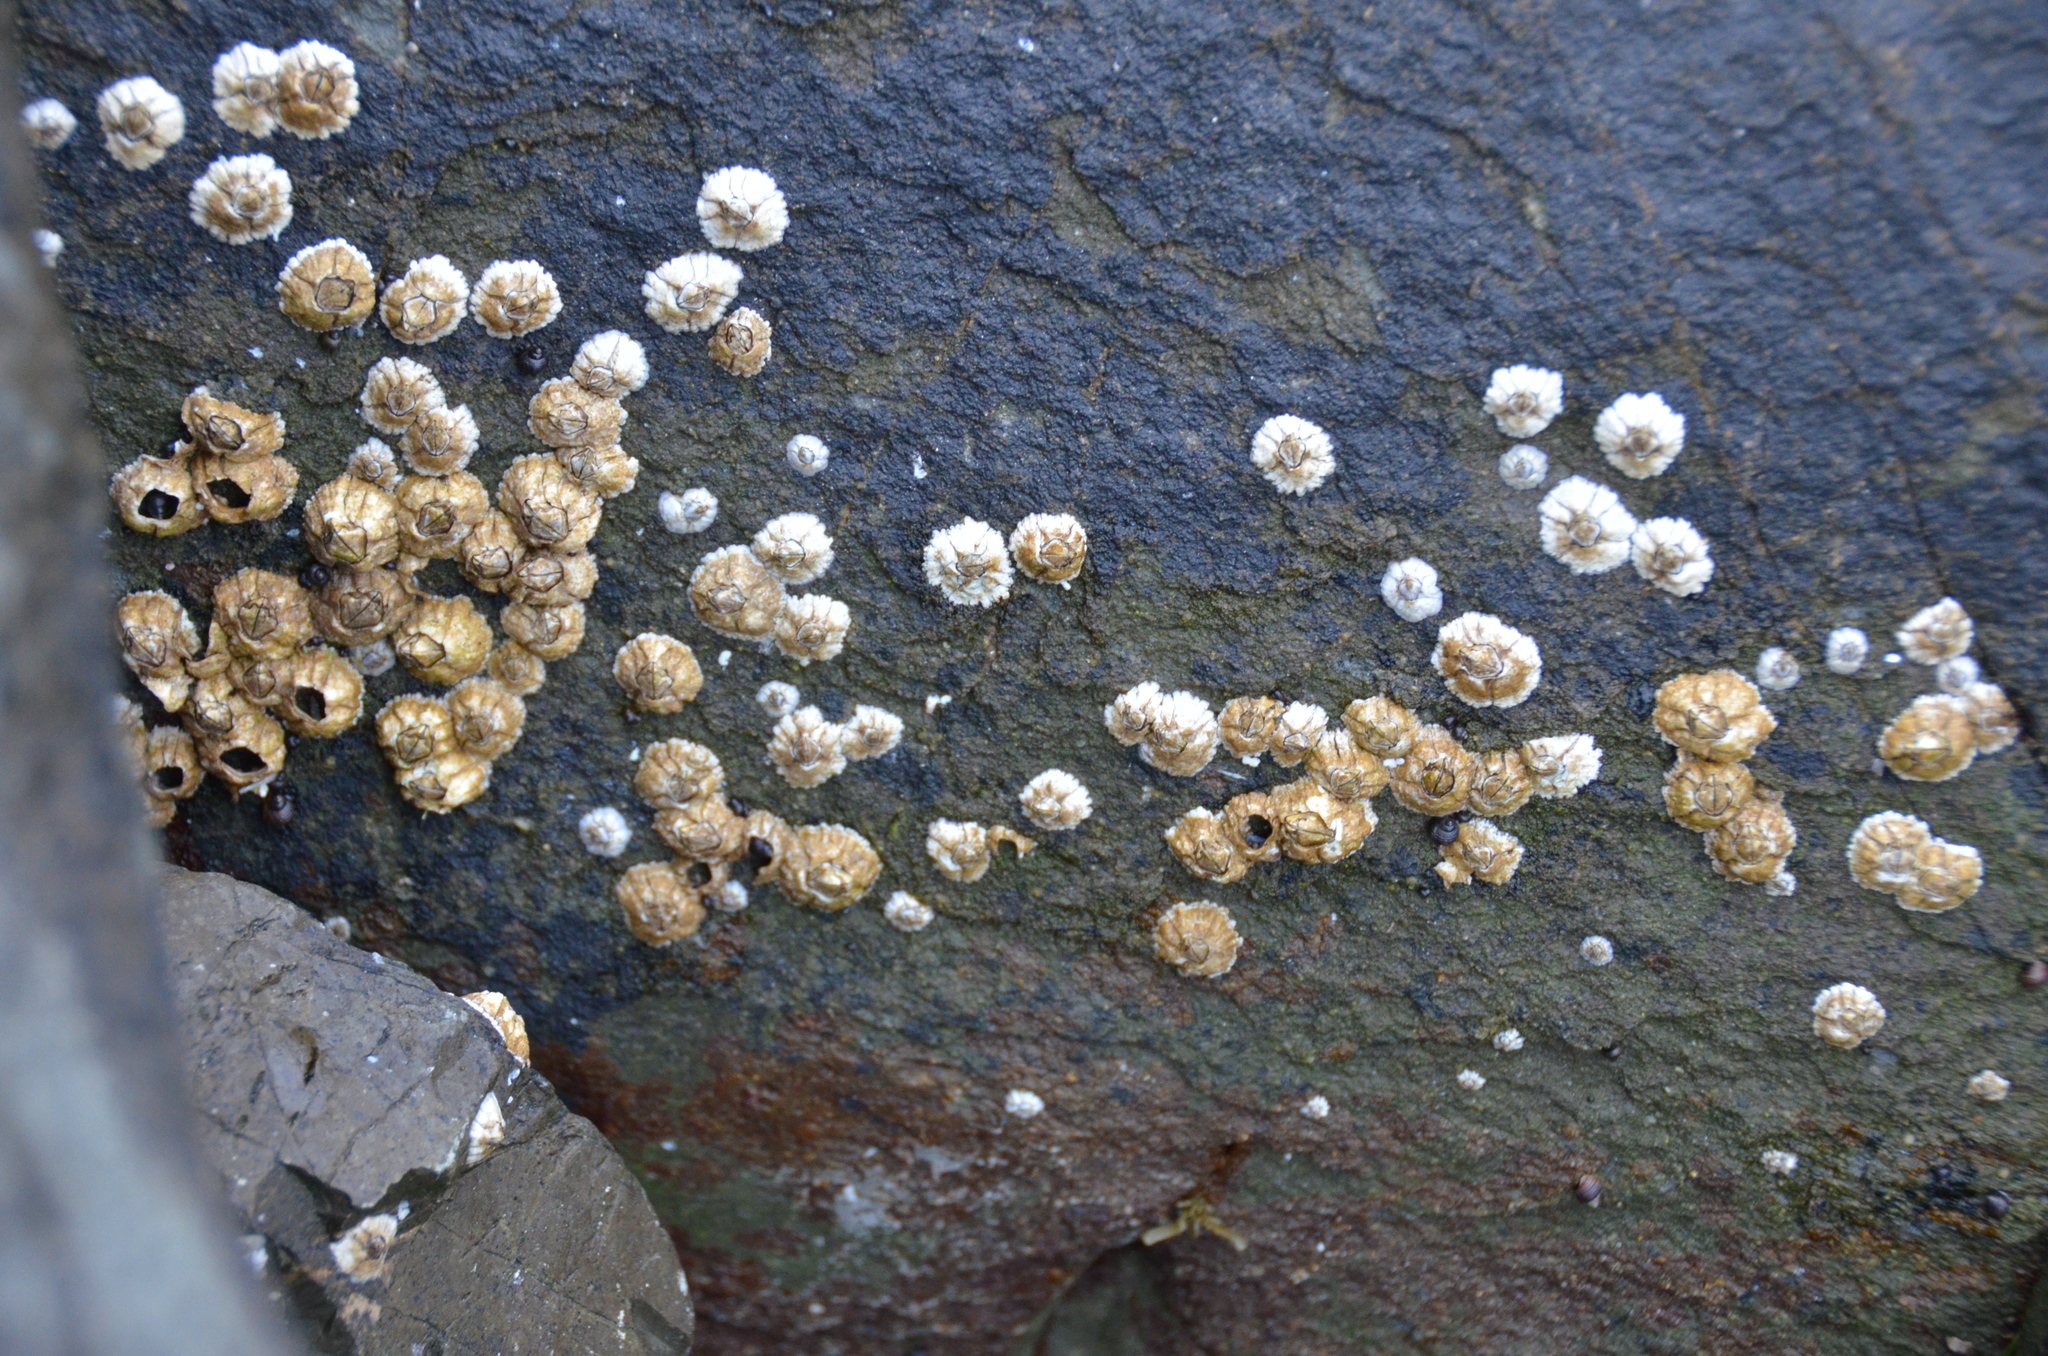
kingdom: Animalia
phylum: Arthropoda
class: Maxillopoda
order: Sessilia
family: Archaeobalanidae
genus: Semibalanus
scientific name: Semibalanus balanoides
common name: Acorn barnacle
